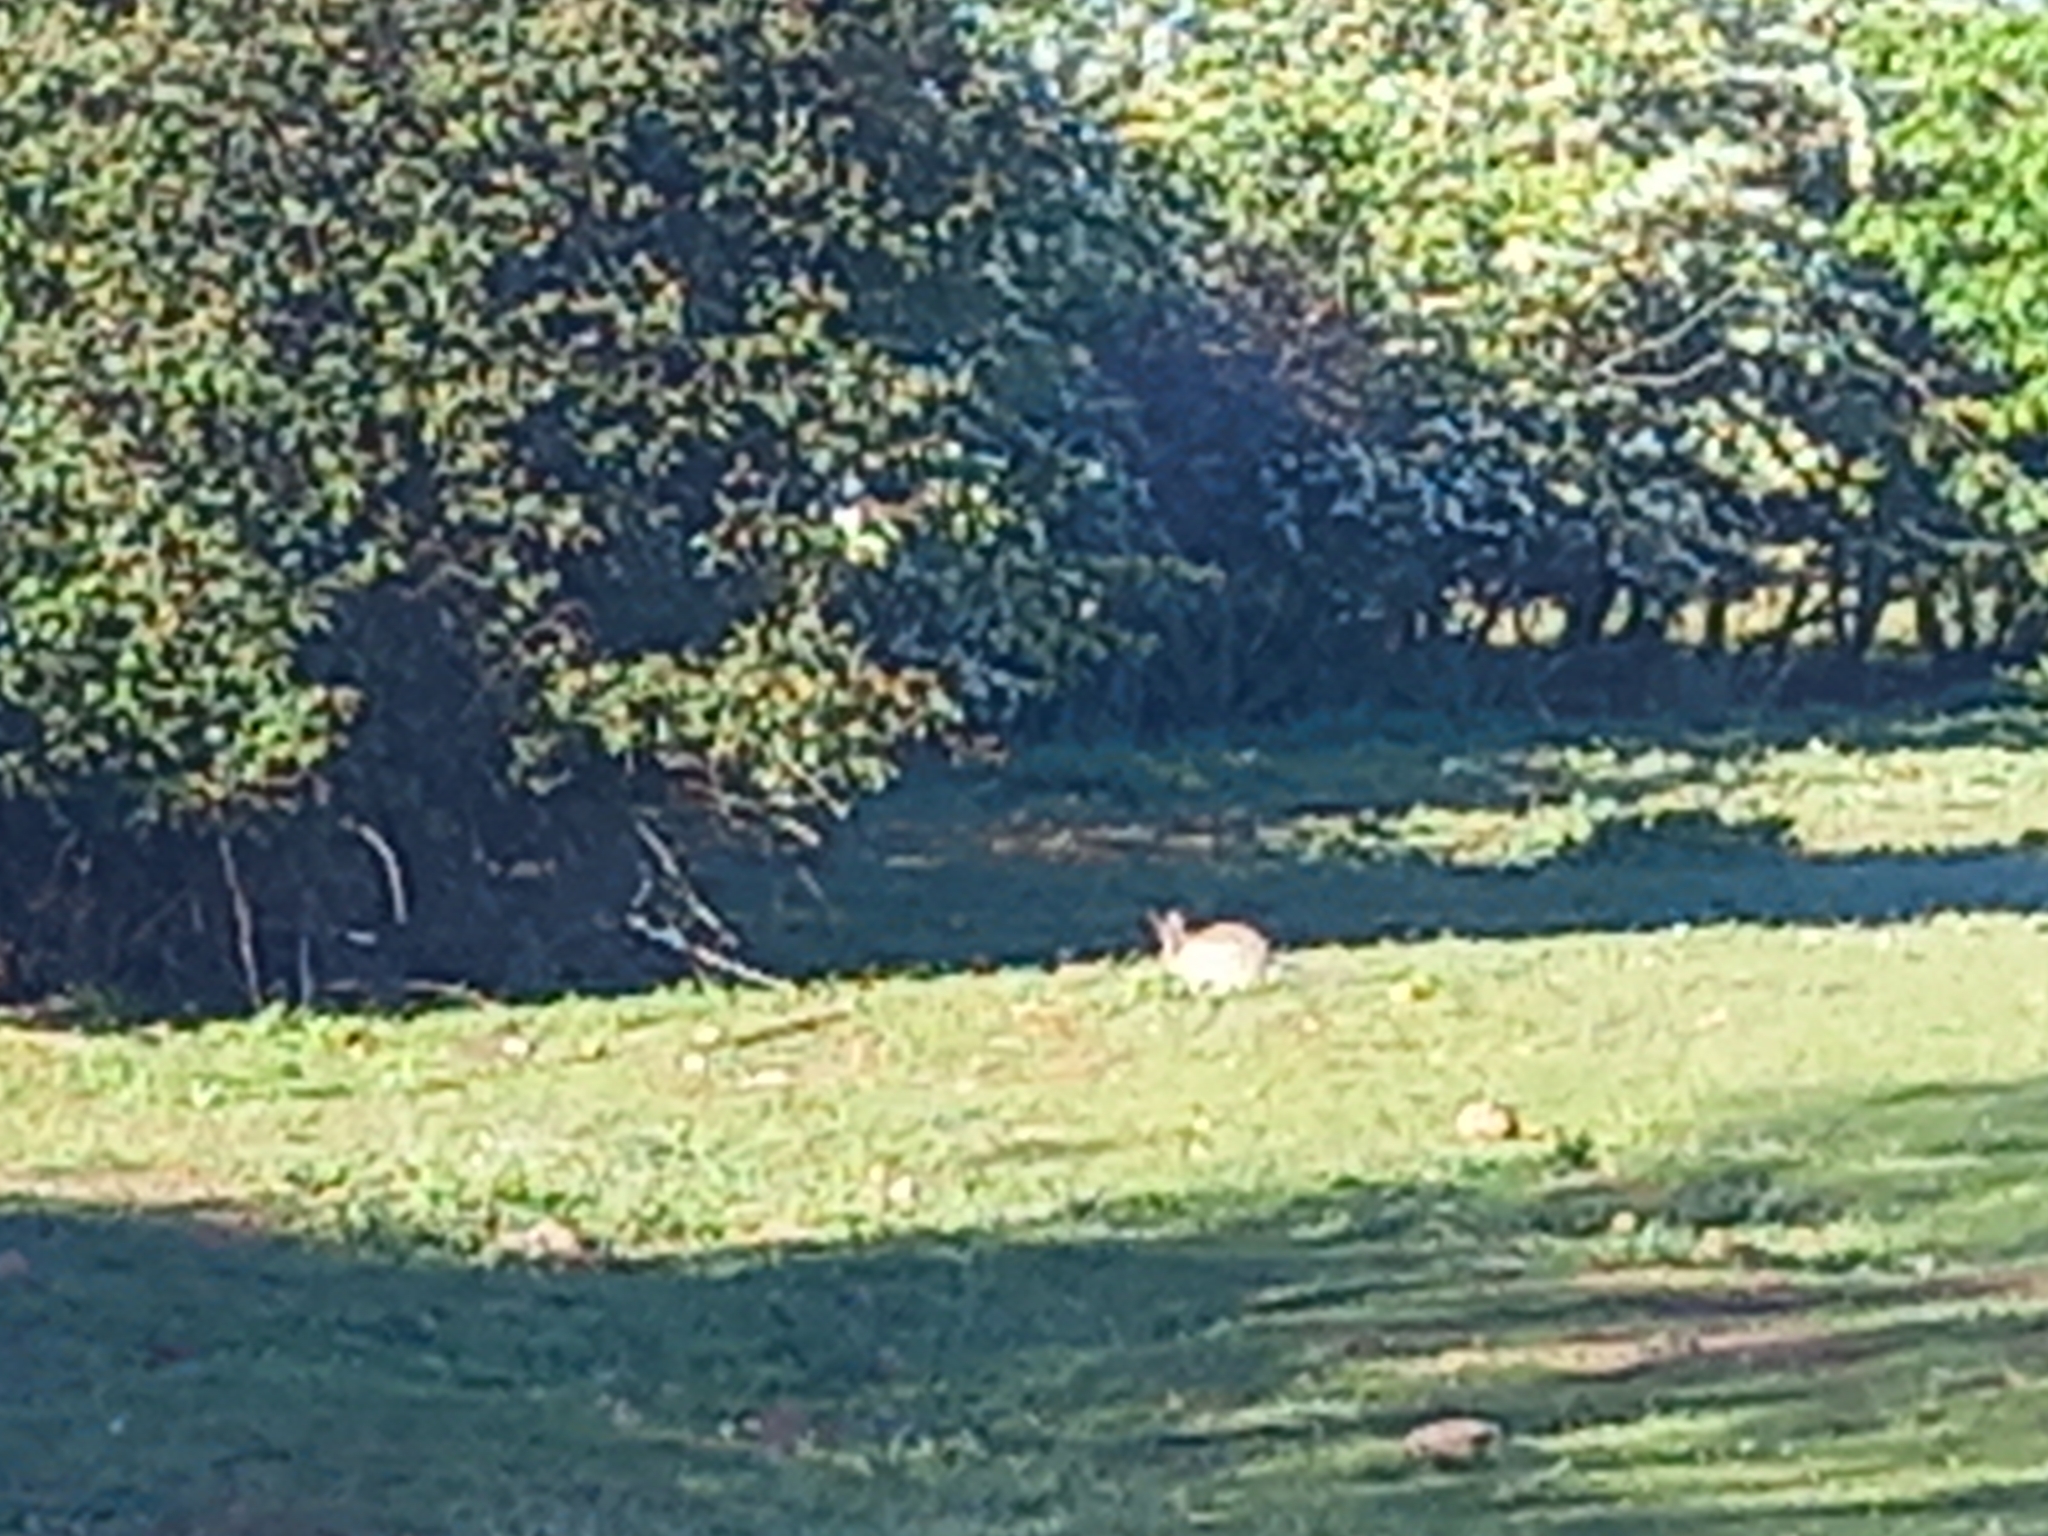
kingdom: Animalia
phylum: Chordata
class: Mammalia
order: Lagomorpha
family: Leporidae
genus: Oryctolagus
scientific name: Oryctolagus cuniculus
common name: European rabbit
